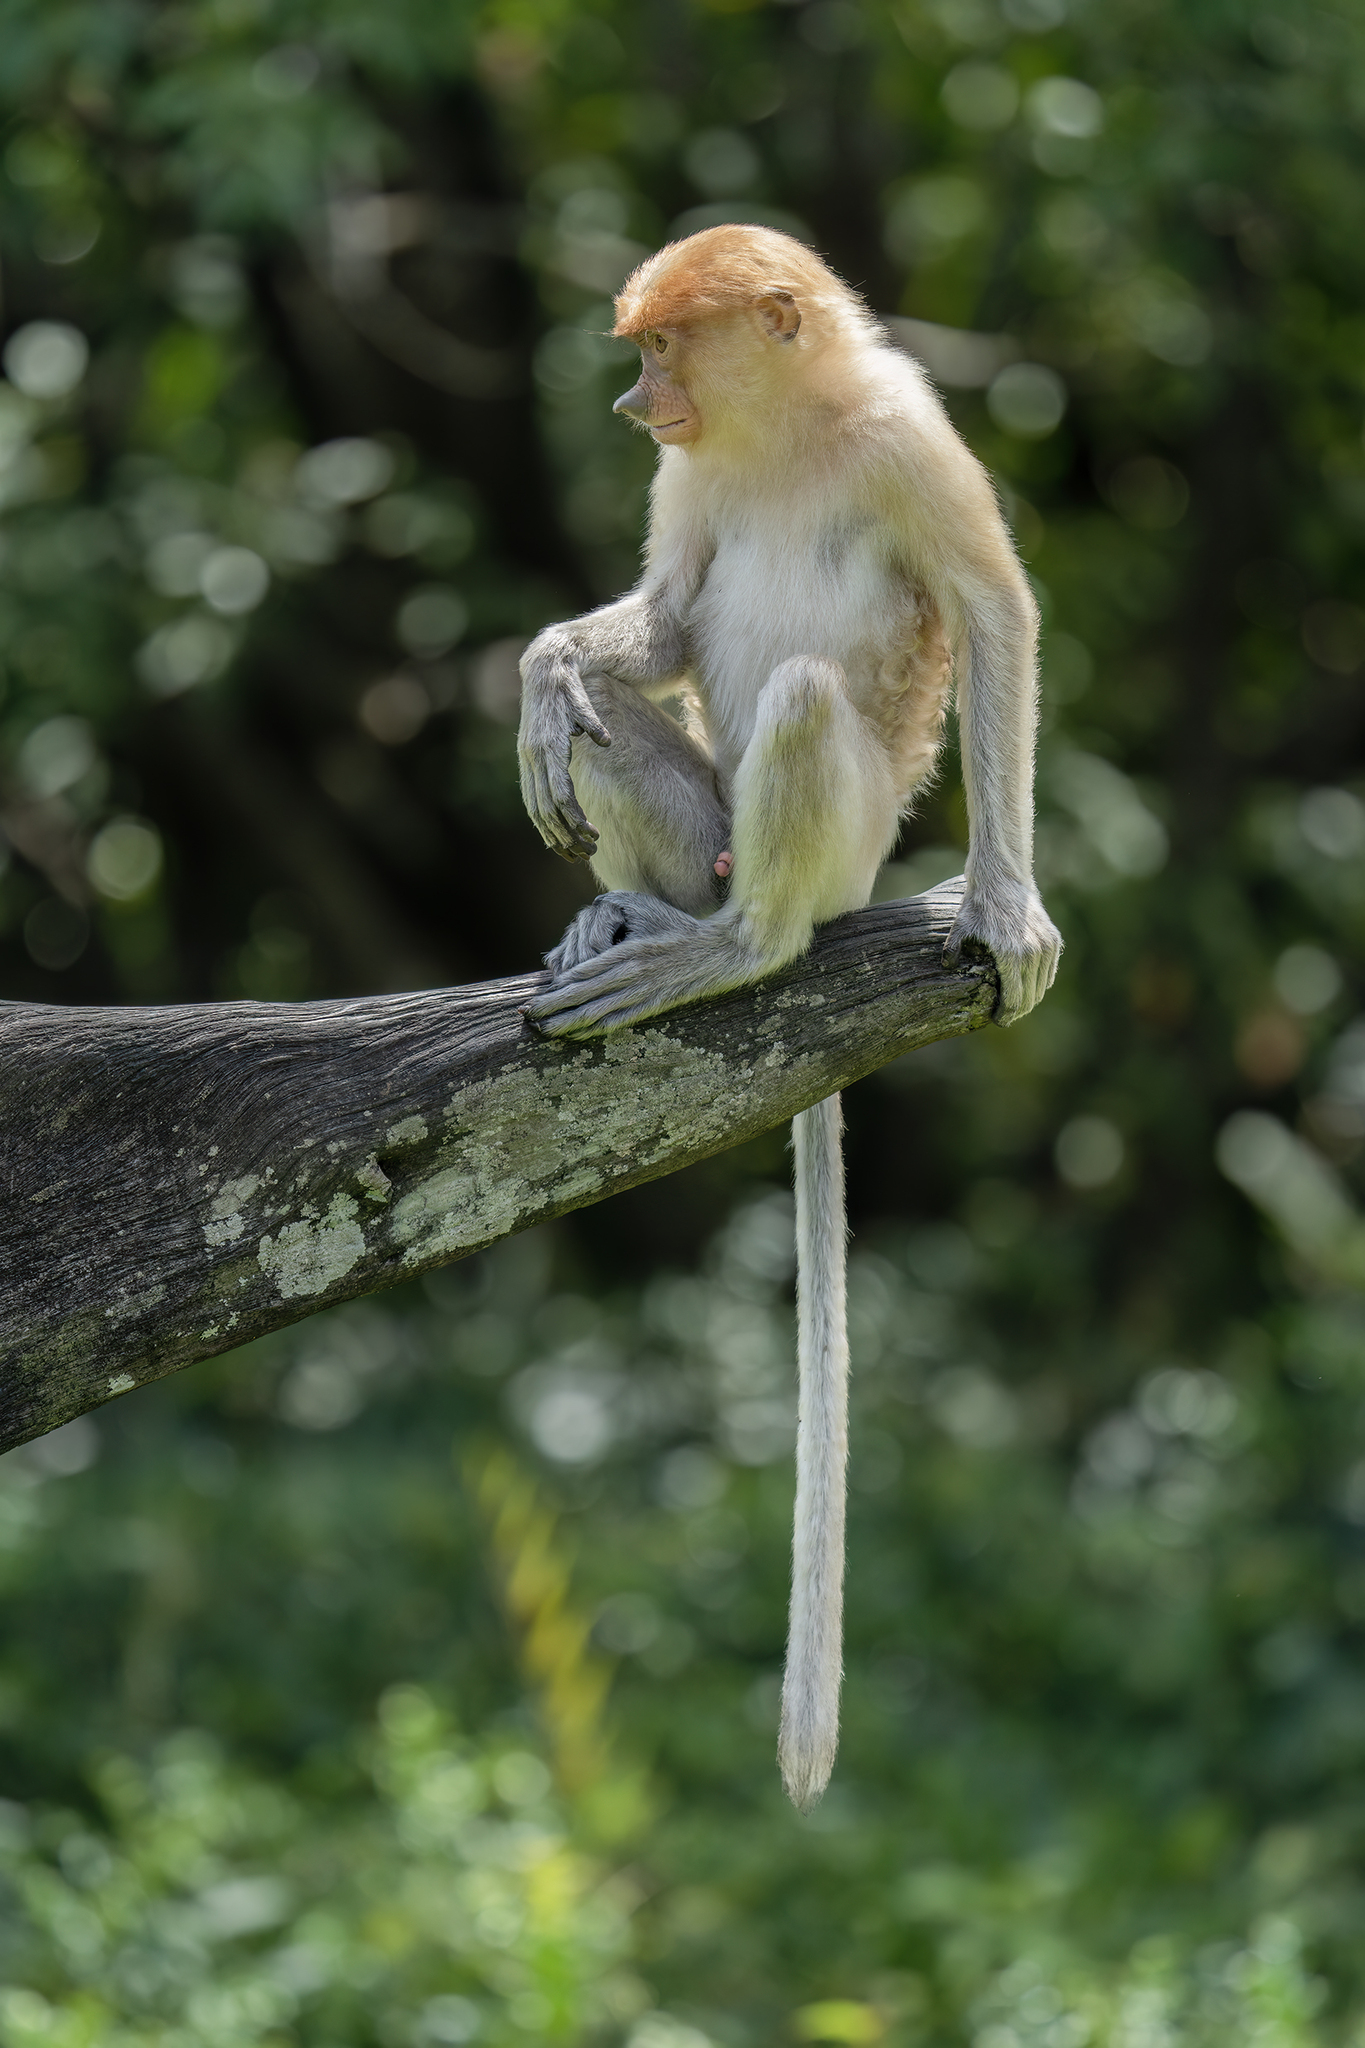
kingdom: Animalia
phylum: Chordata
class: Mammalia
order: Primates
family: Cercopithecidae
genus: Nasalis
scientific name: Nasalis larvatus
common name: Proboscis monkey
